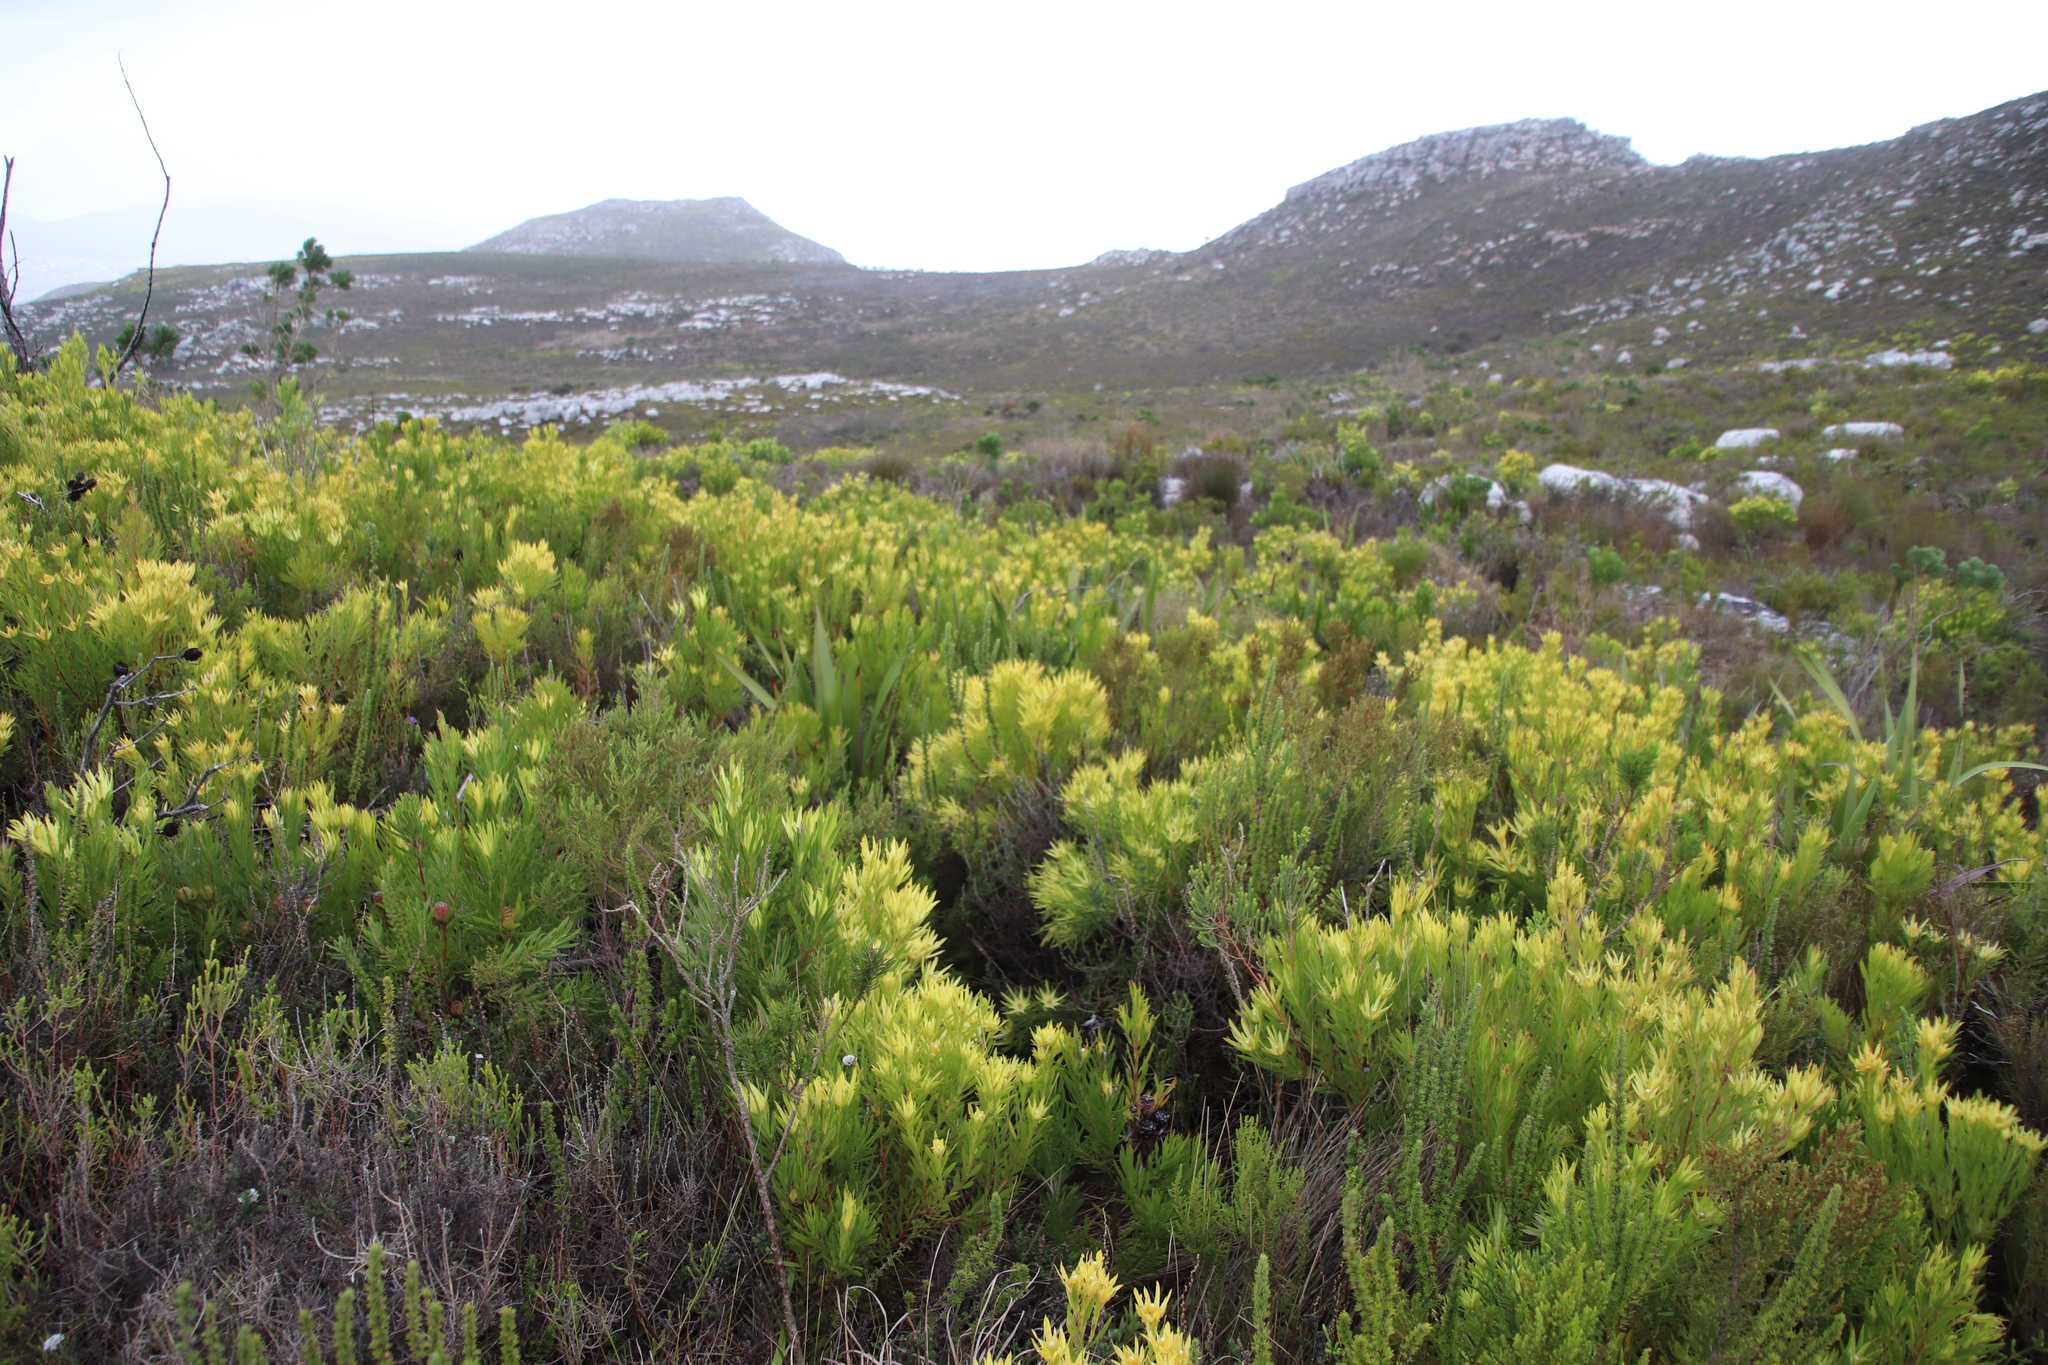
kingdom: Plantae
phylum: Tracheophyta
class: Magnoliopsida
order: Proteales
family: Proteaceae
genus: Leucadendron
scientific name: Leucadendron xanthoconus
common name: Sickle-leaf conebush
